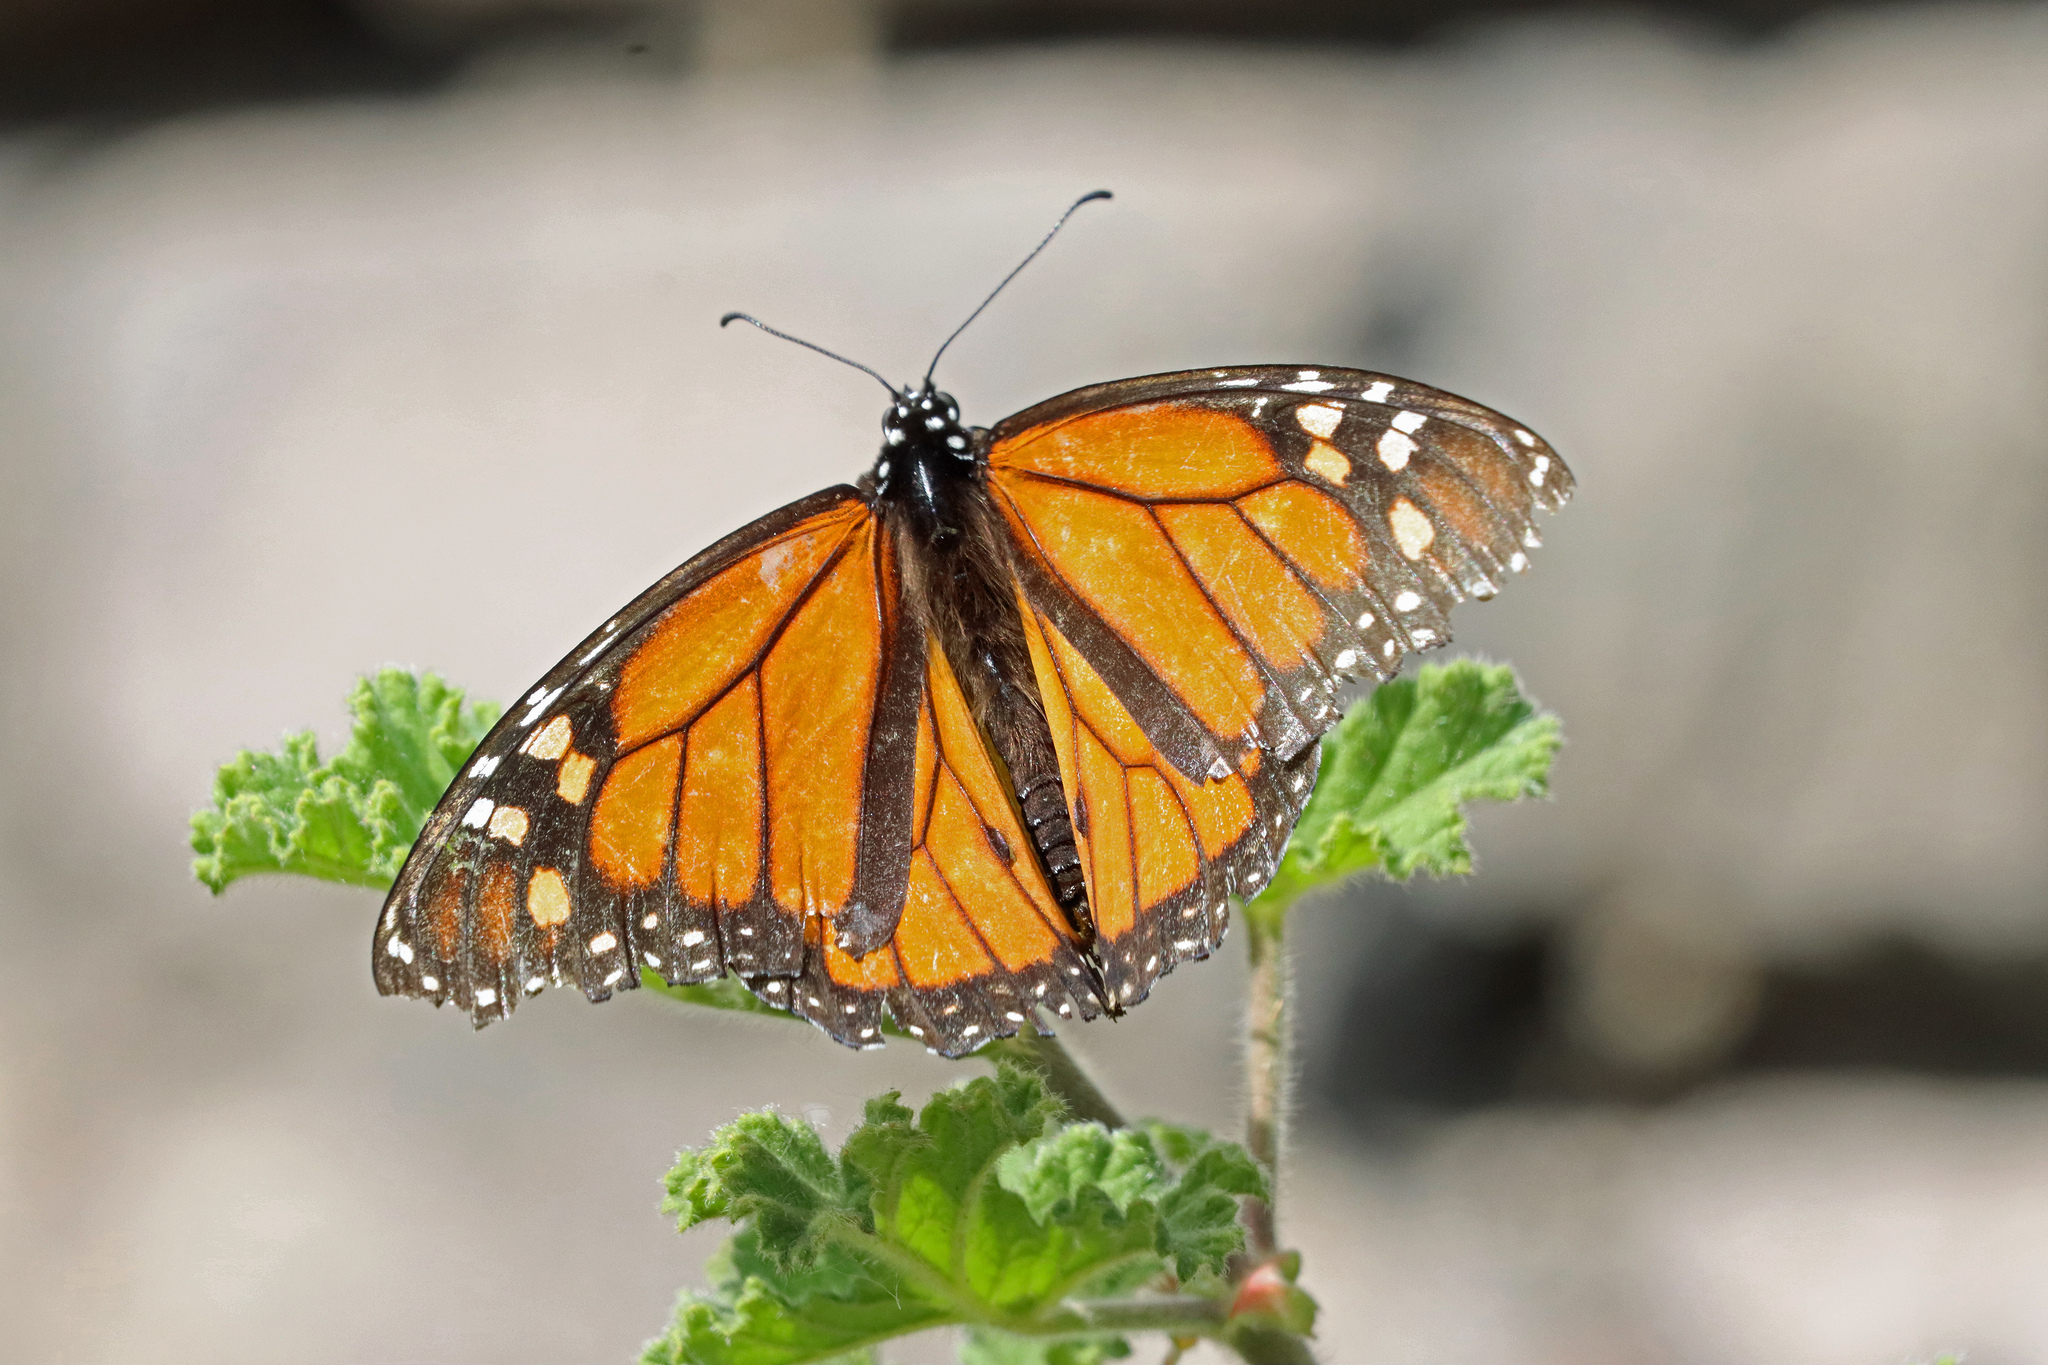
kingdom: Animalia
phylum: Arthropoda
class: Insecta
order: Lepidoptera
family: Nymphalidae
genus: Danaus
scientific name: Danaus plexippus
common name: Monarch
